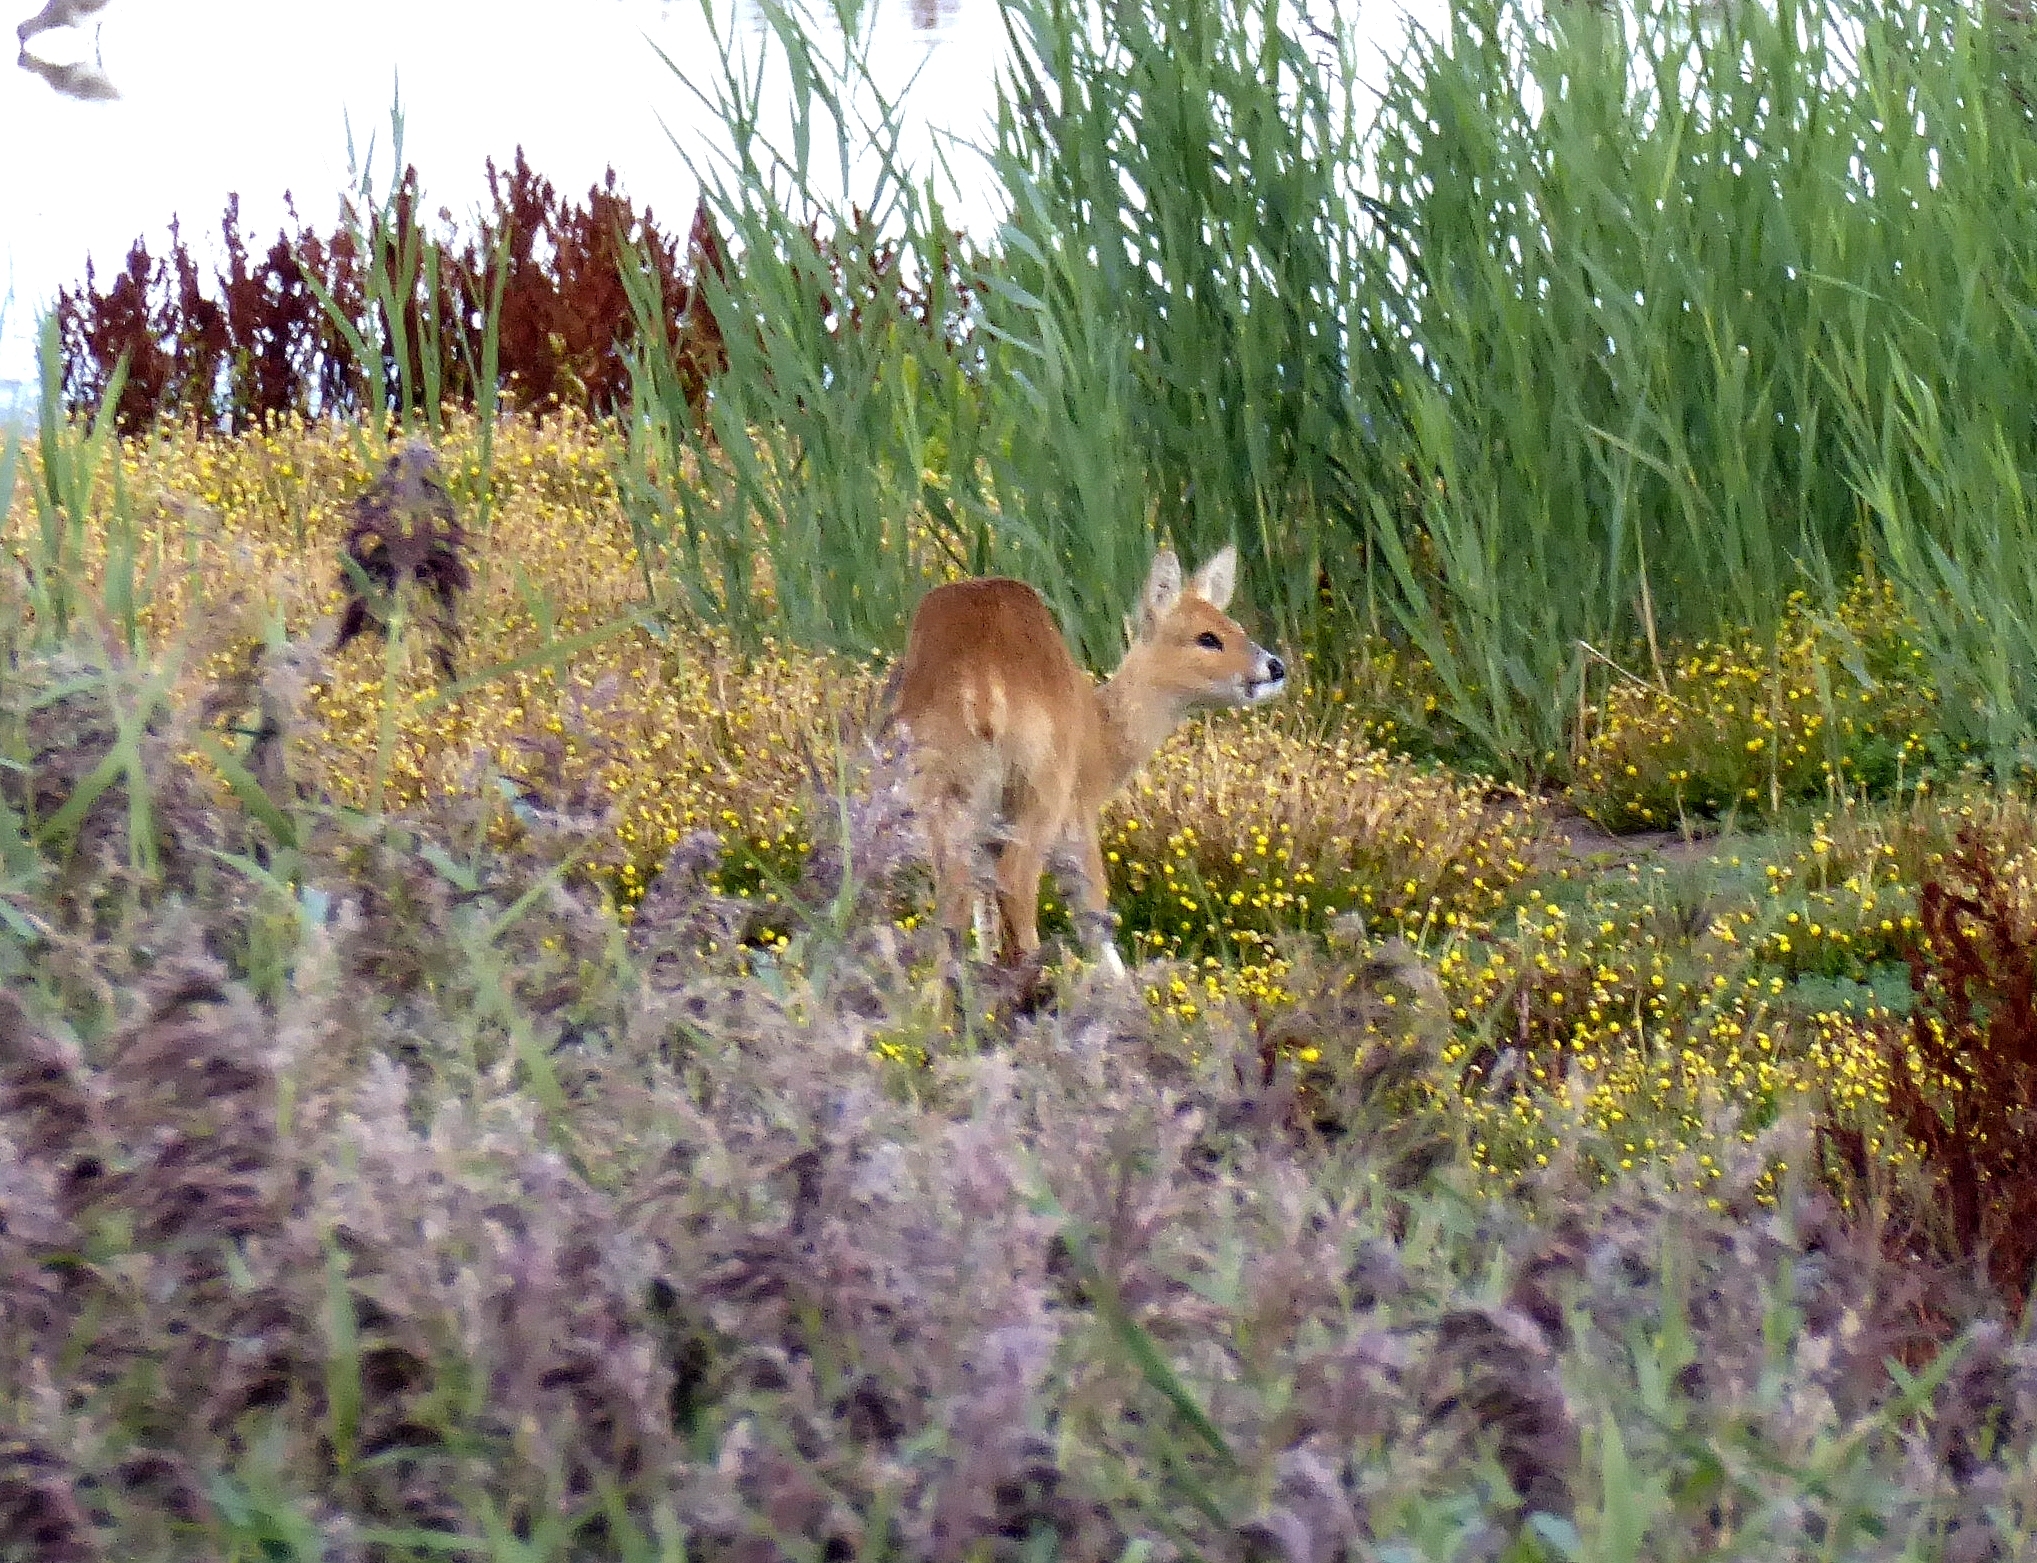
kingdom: Animalia
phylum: Chordata
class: Mammalia
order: Artiodactyla
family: Cervidae
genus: Hydropotes
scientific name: Hydropotes inermis
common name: Chinese water deer
